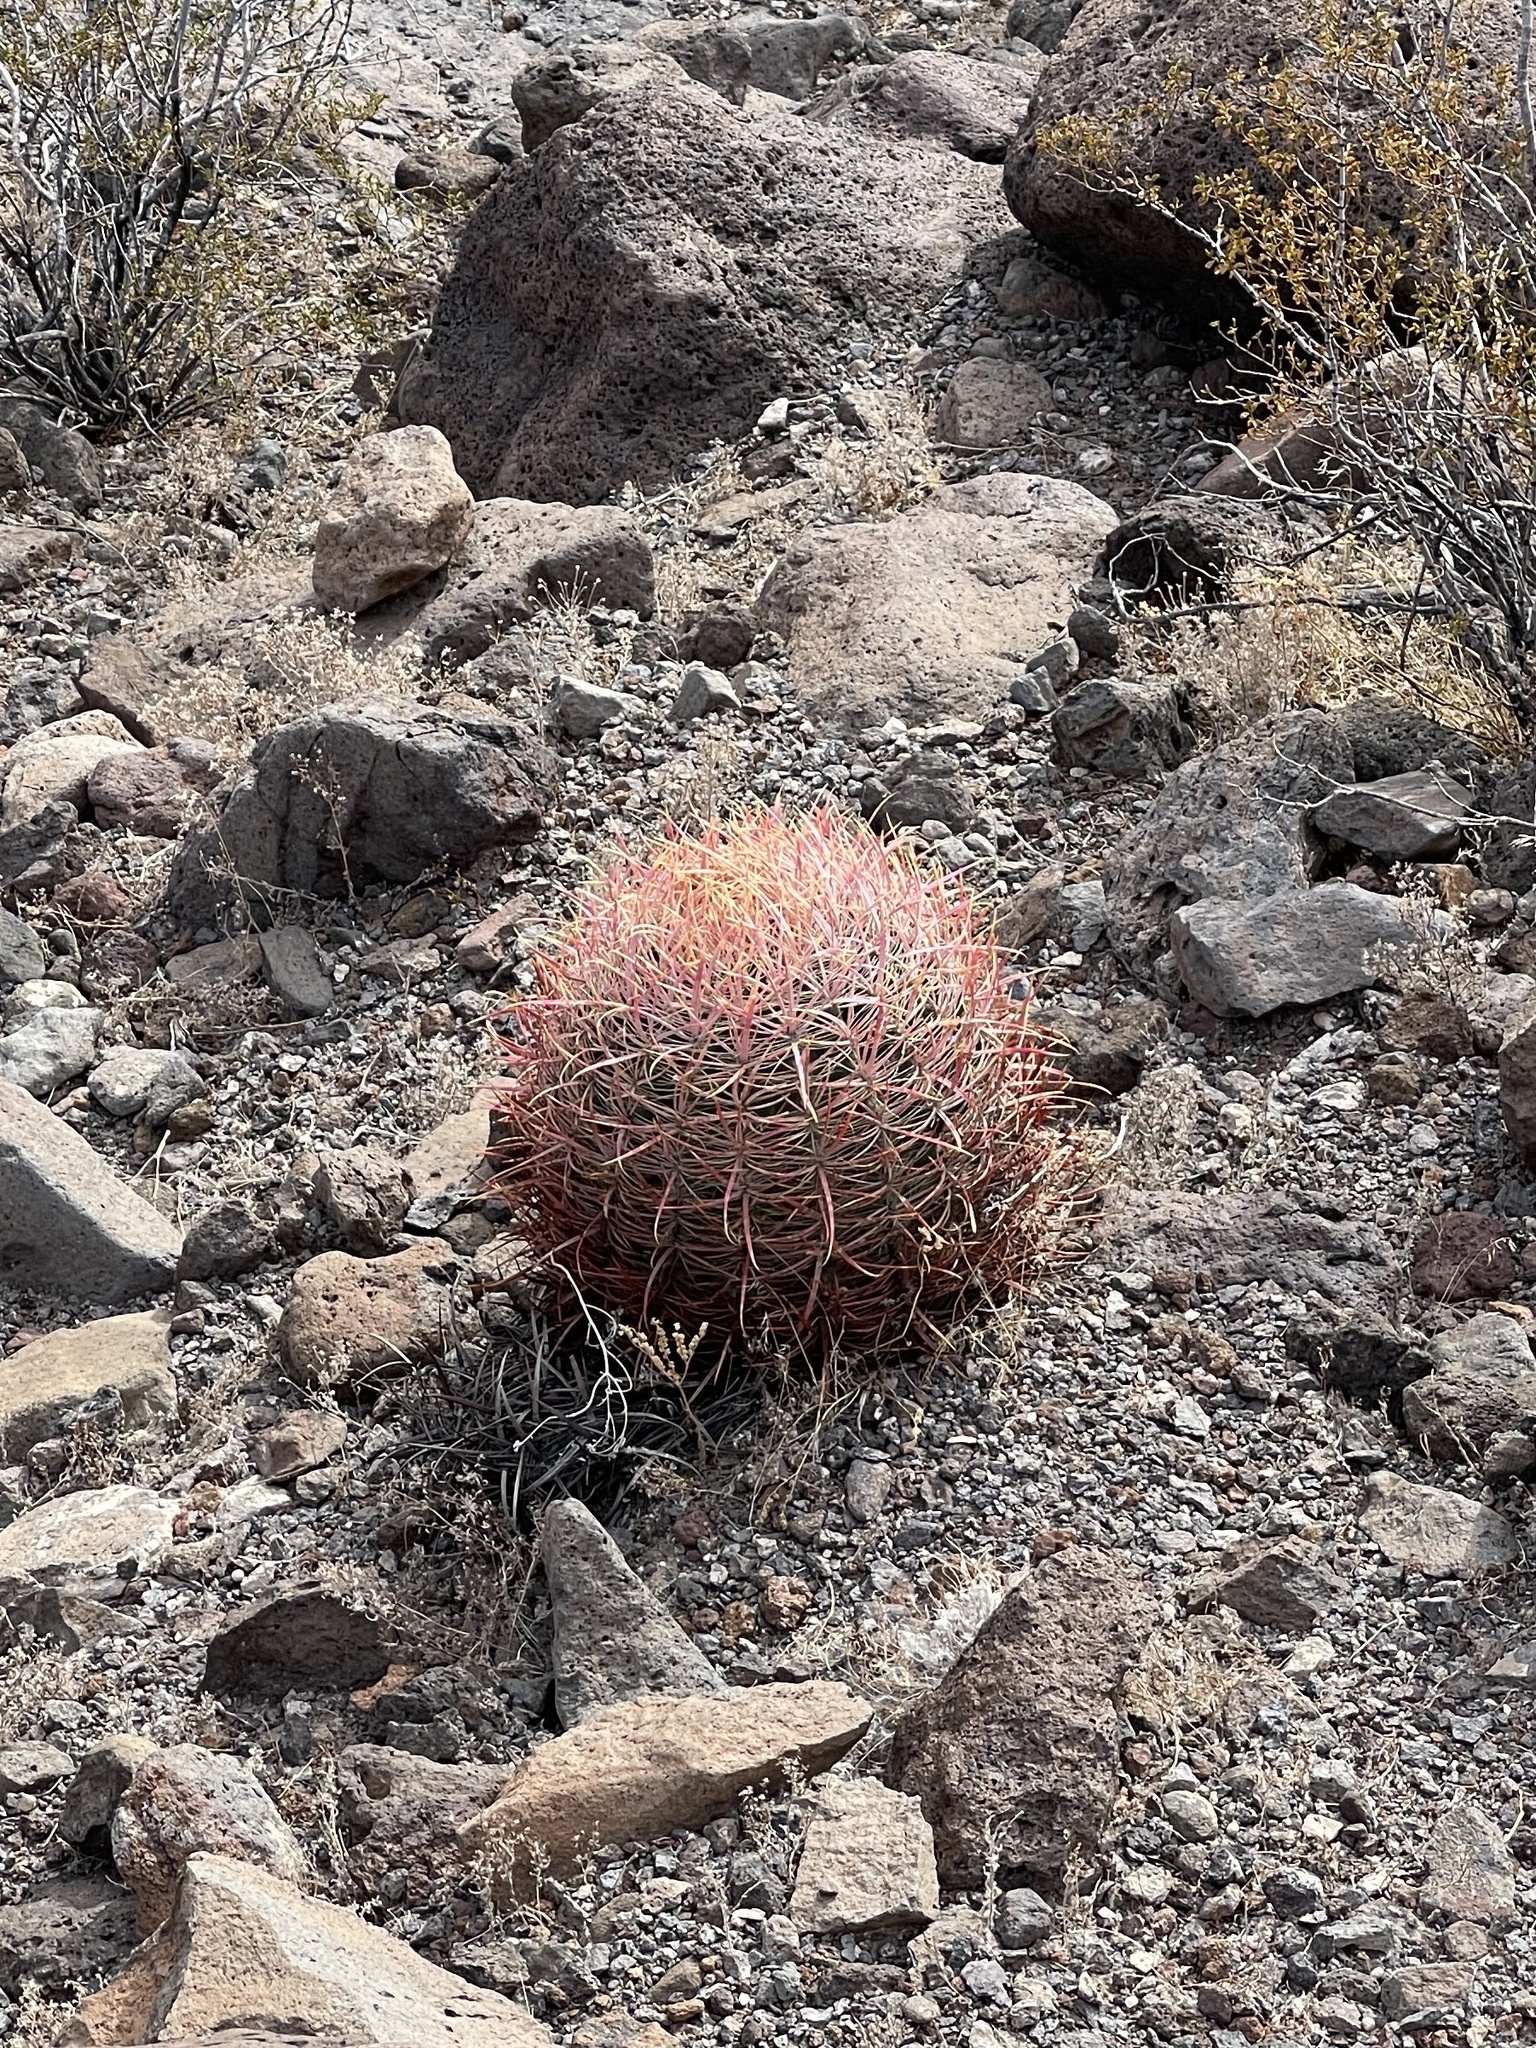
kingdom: Plantae
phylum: Tracheophyta
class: Magnoliopsida
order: Caryophyllales
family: Cactaceae
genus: Ferocactus
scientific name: Ferocactus cylindraceus
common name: California barrel cactus
